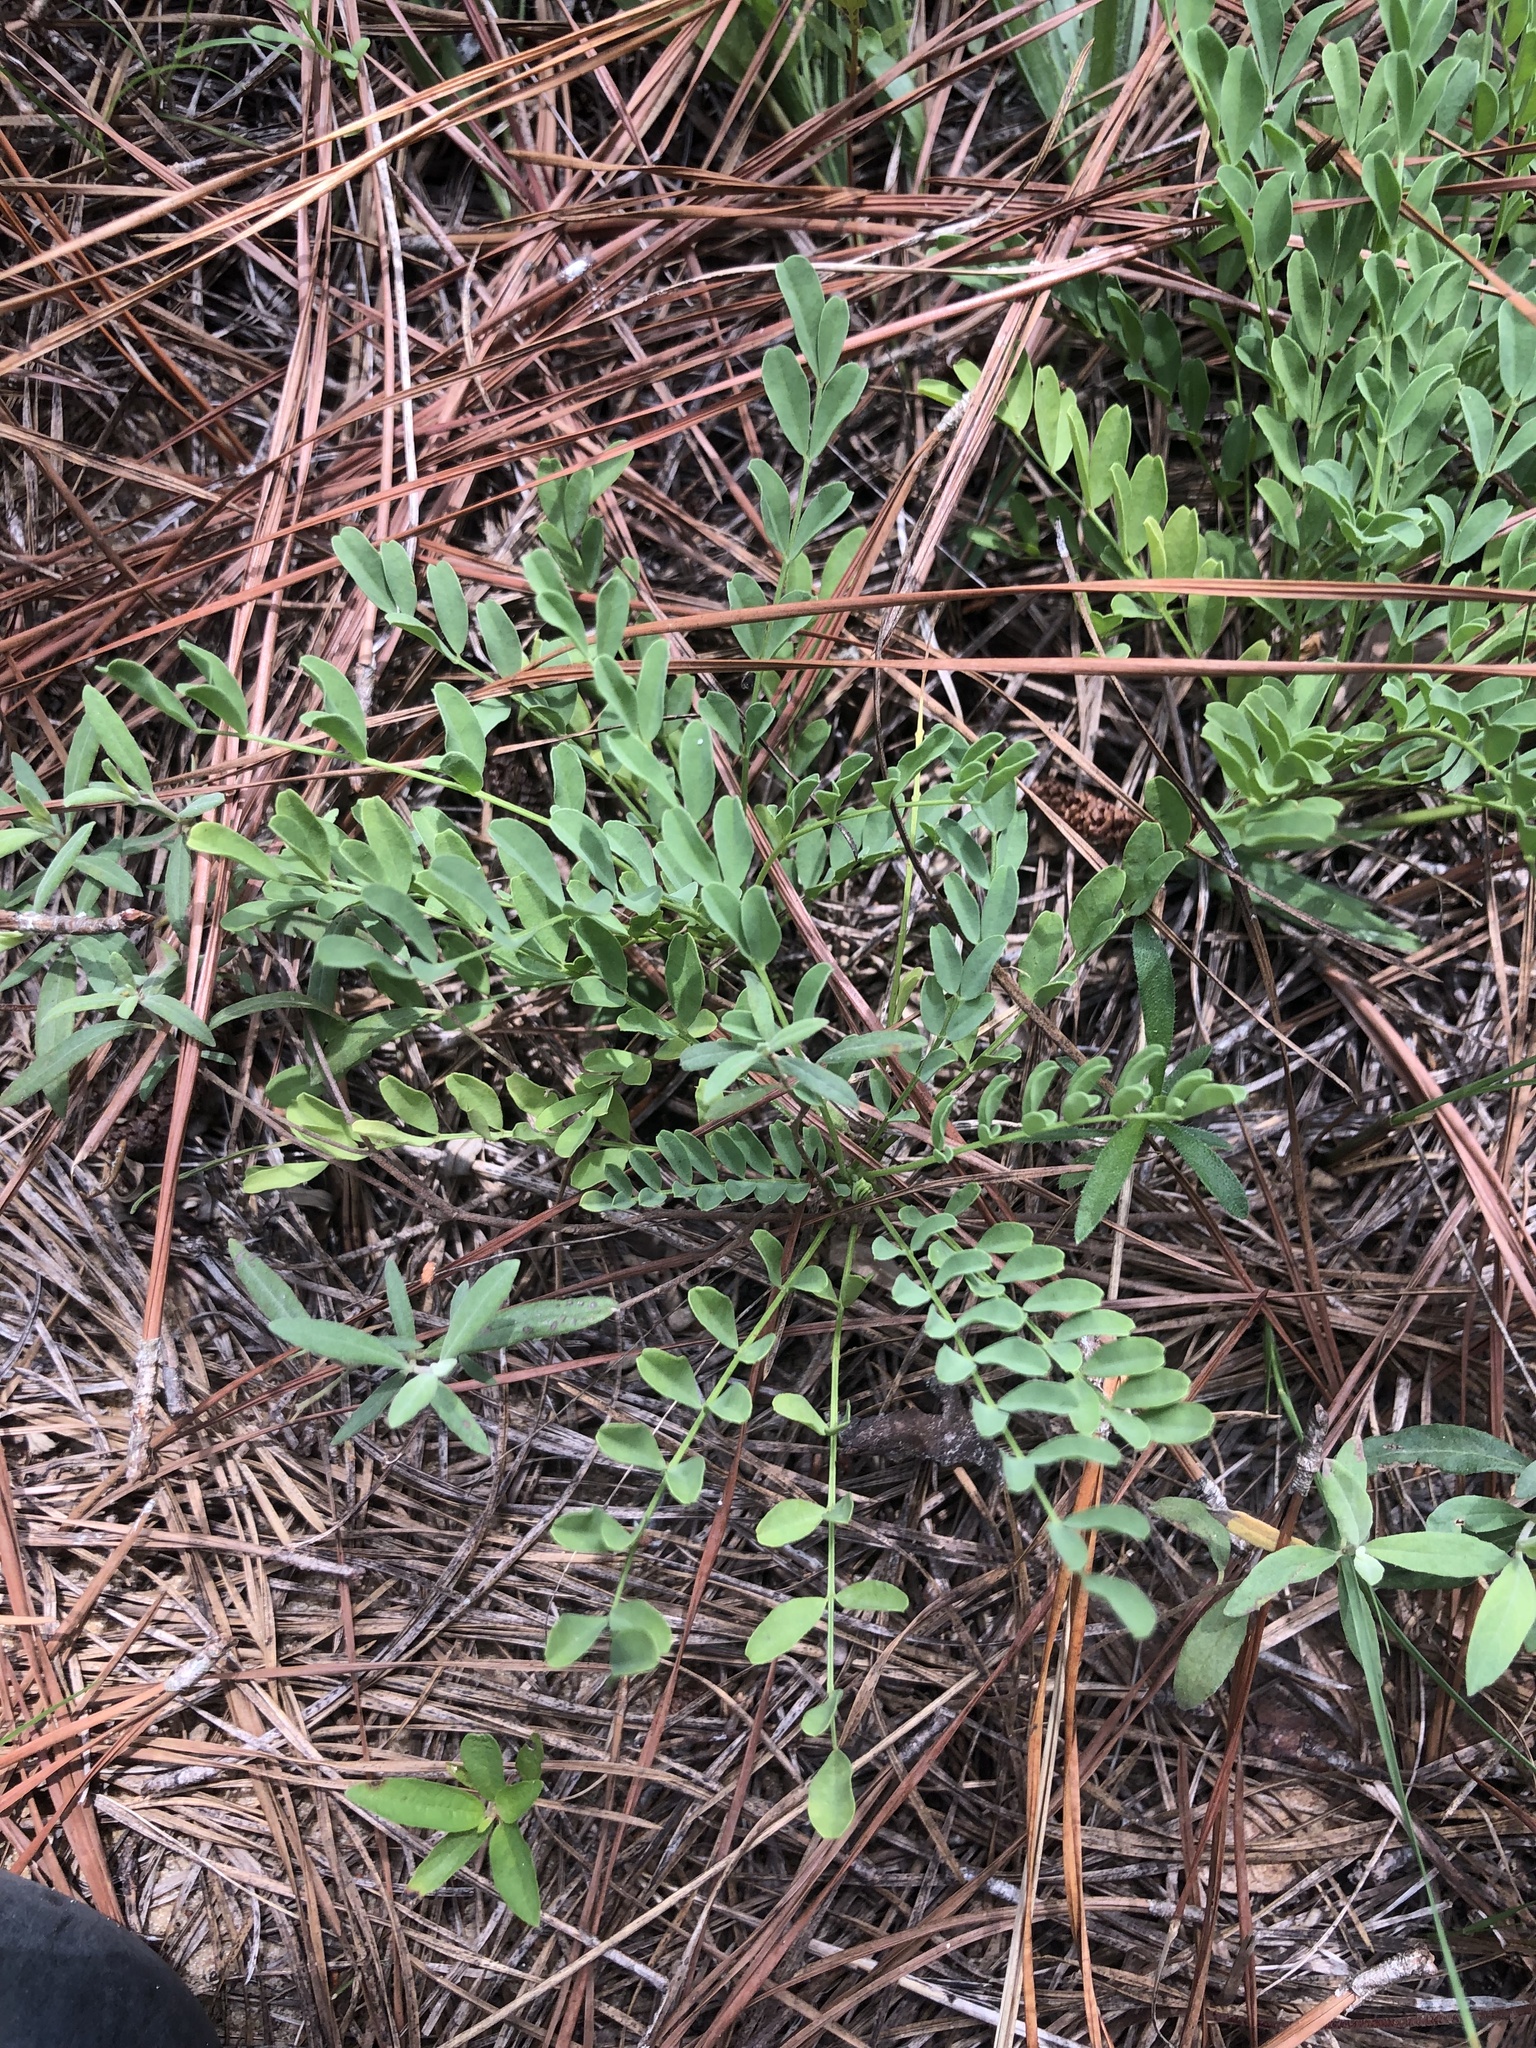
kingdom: Plantae
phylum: Tracheophyta
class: Magnoliopsida
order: Fabales
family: Fabaceae
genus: Astragalus
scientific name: Astragalus distortus
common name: Ozark milk-vetch
